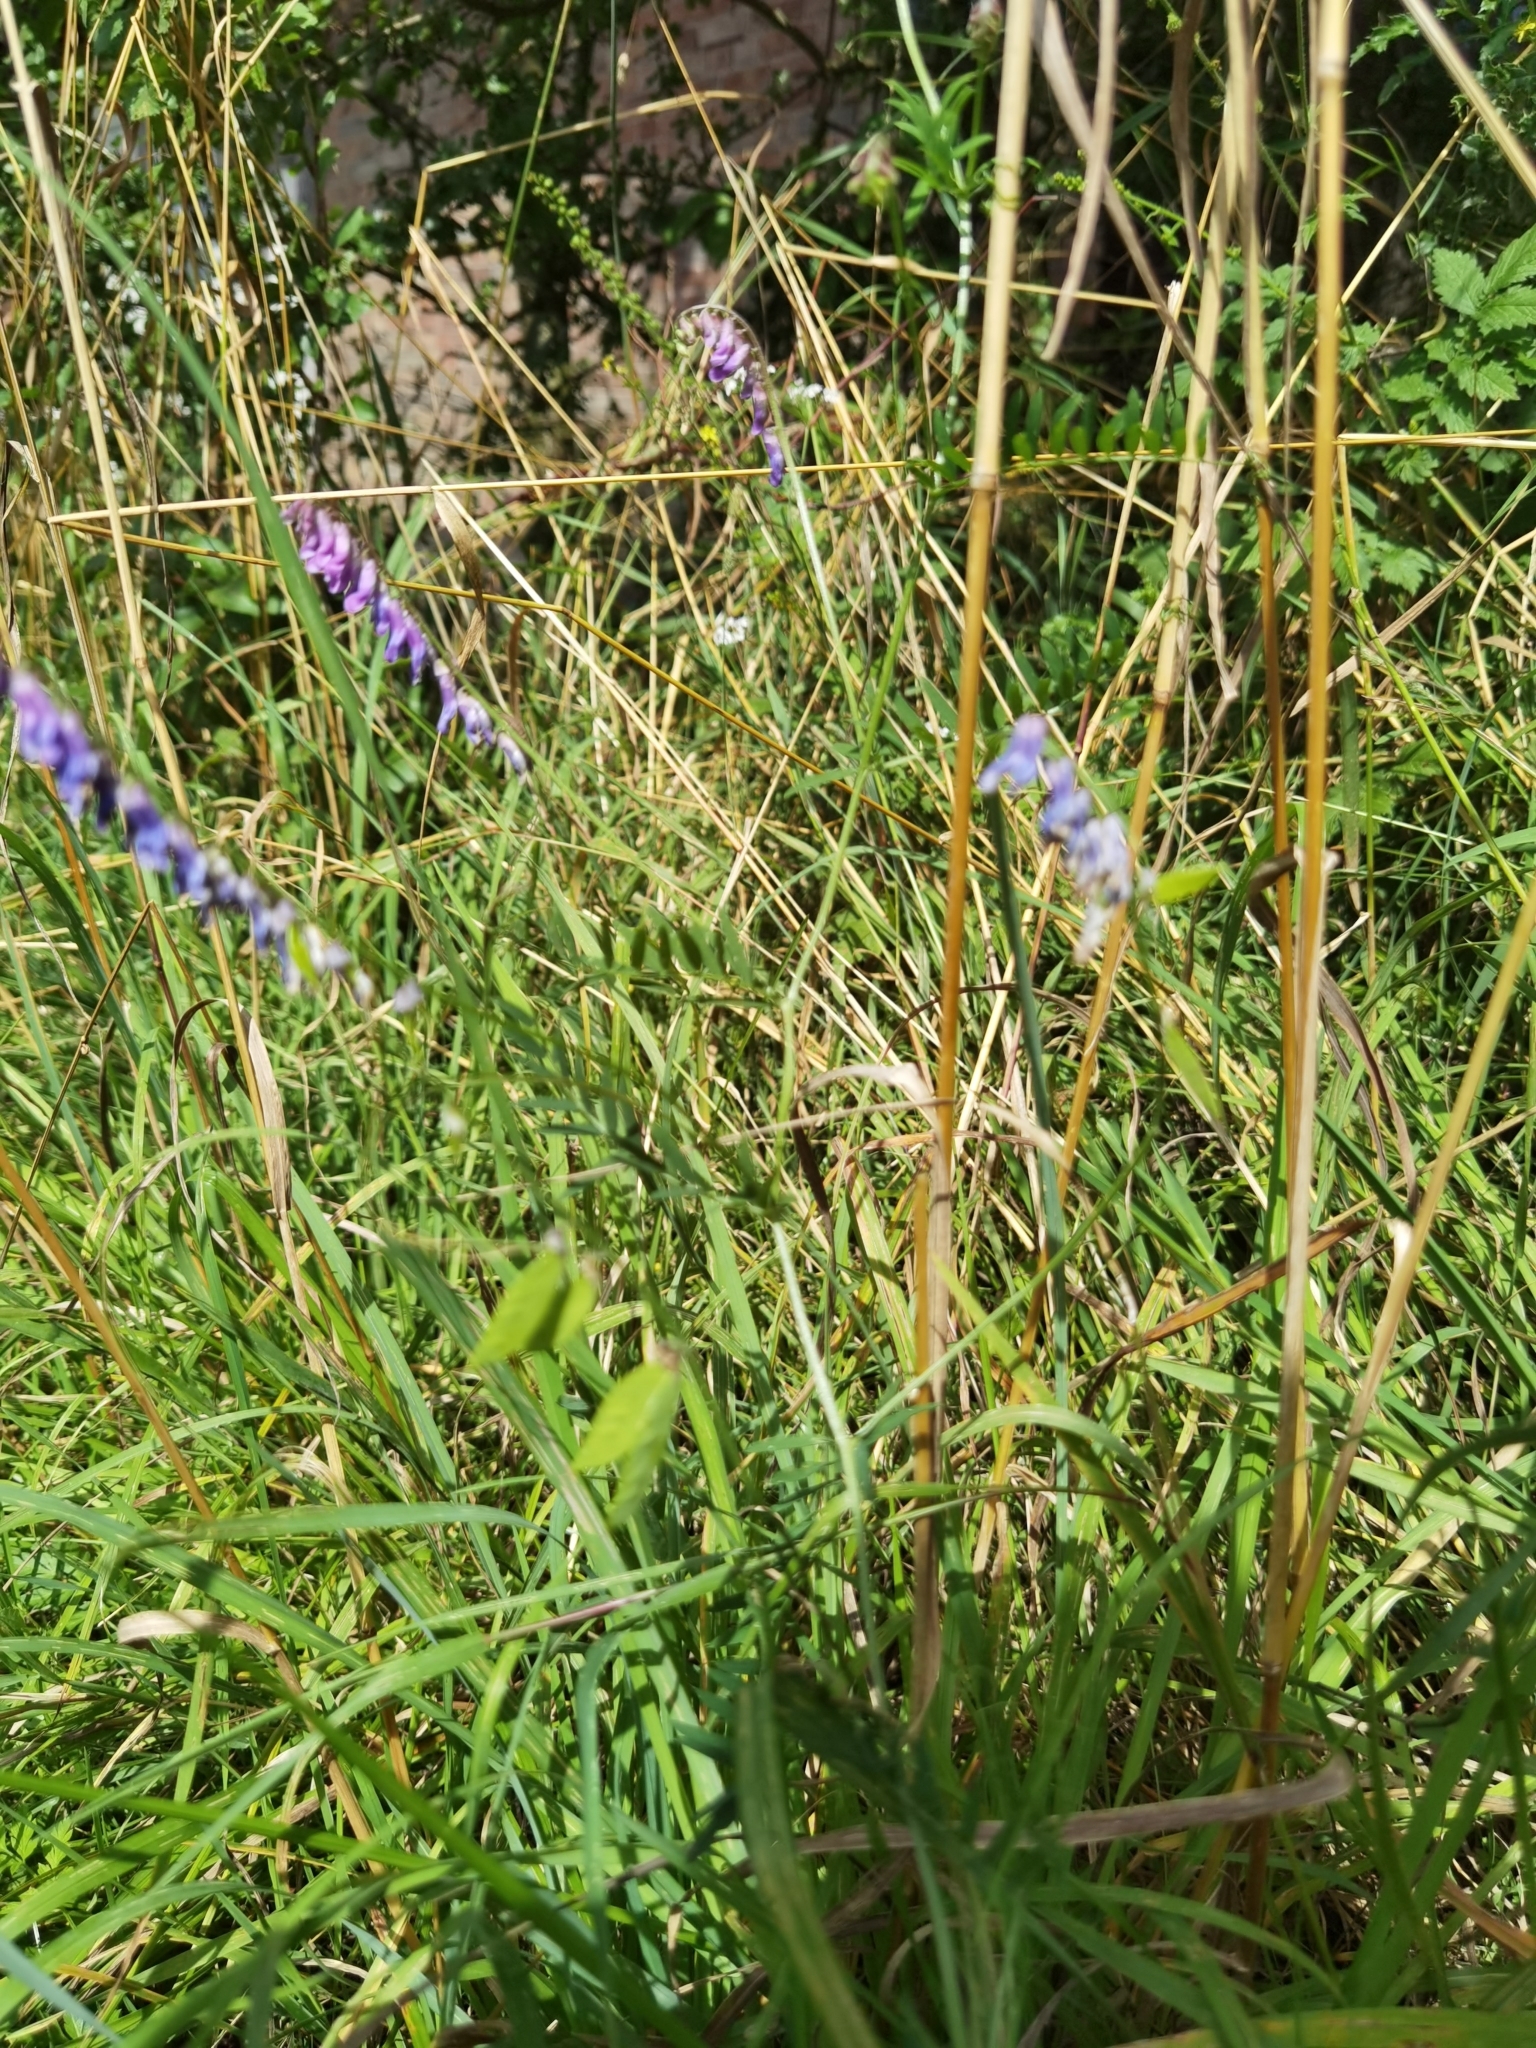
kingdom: Plantae
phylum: Tracheophyta
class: Magnoliopsida
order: Fabales
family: Fabaceae
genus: Vicia
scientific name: Vicia cracca
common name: Bird vetch
